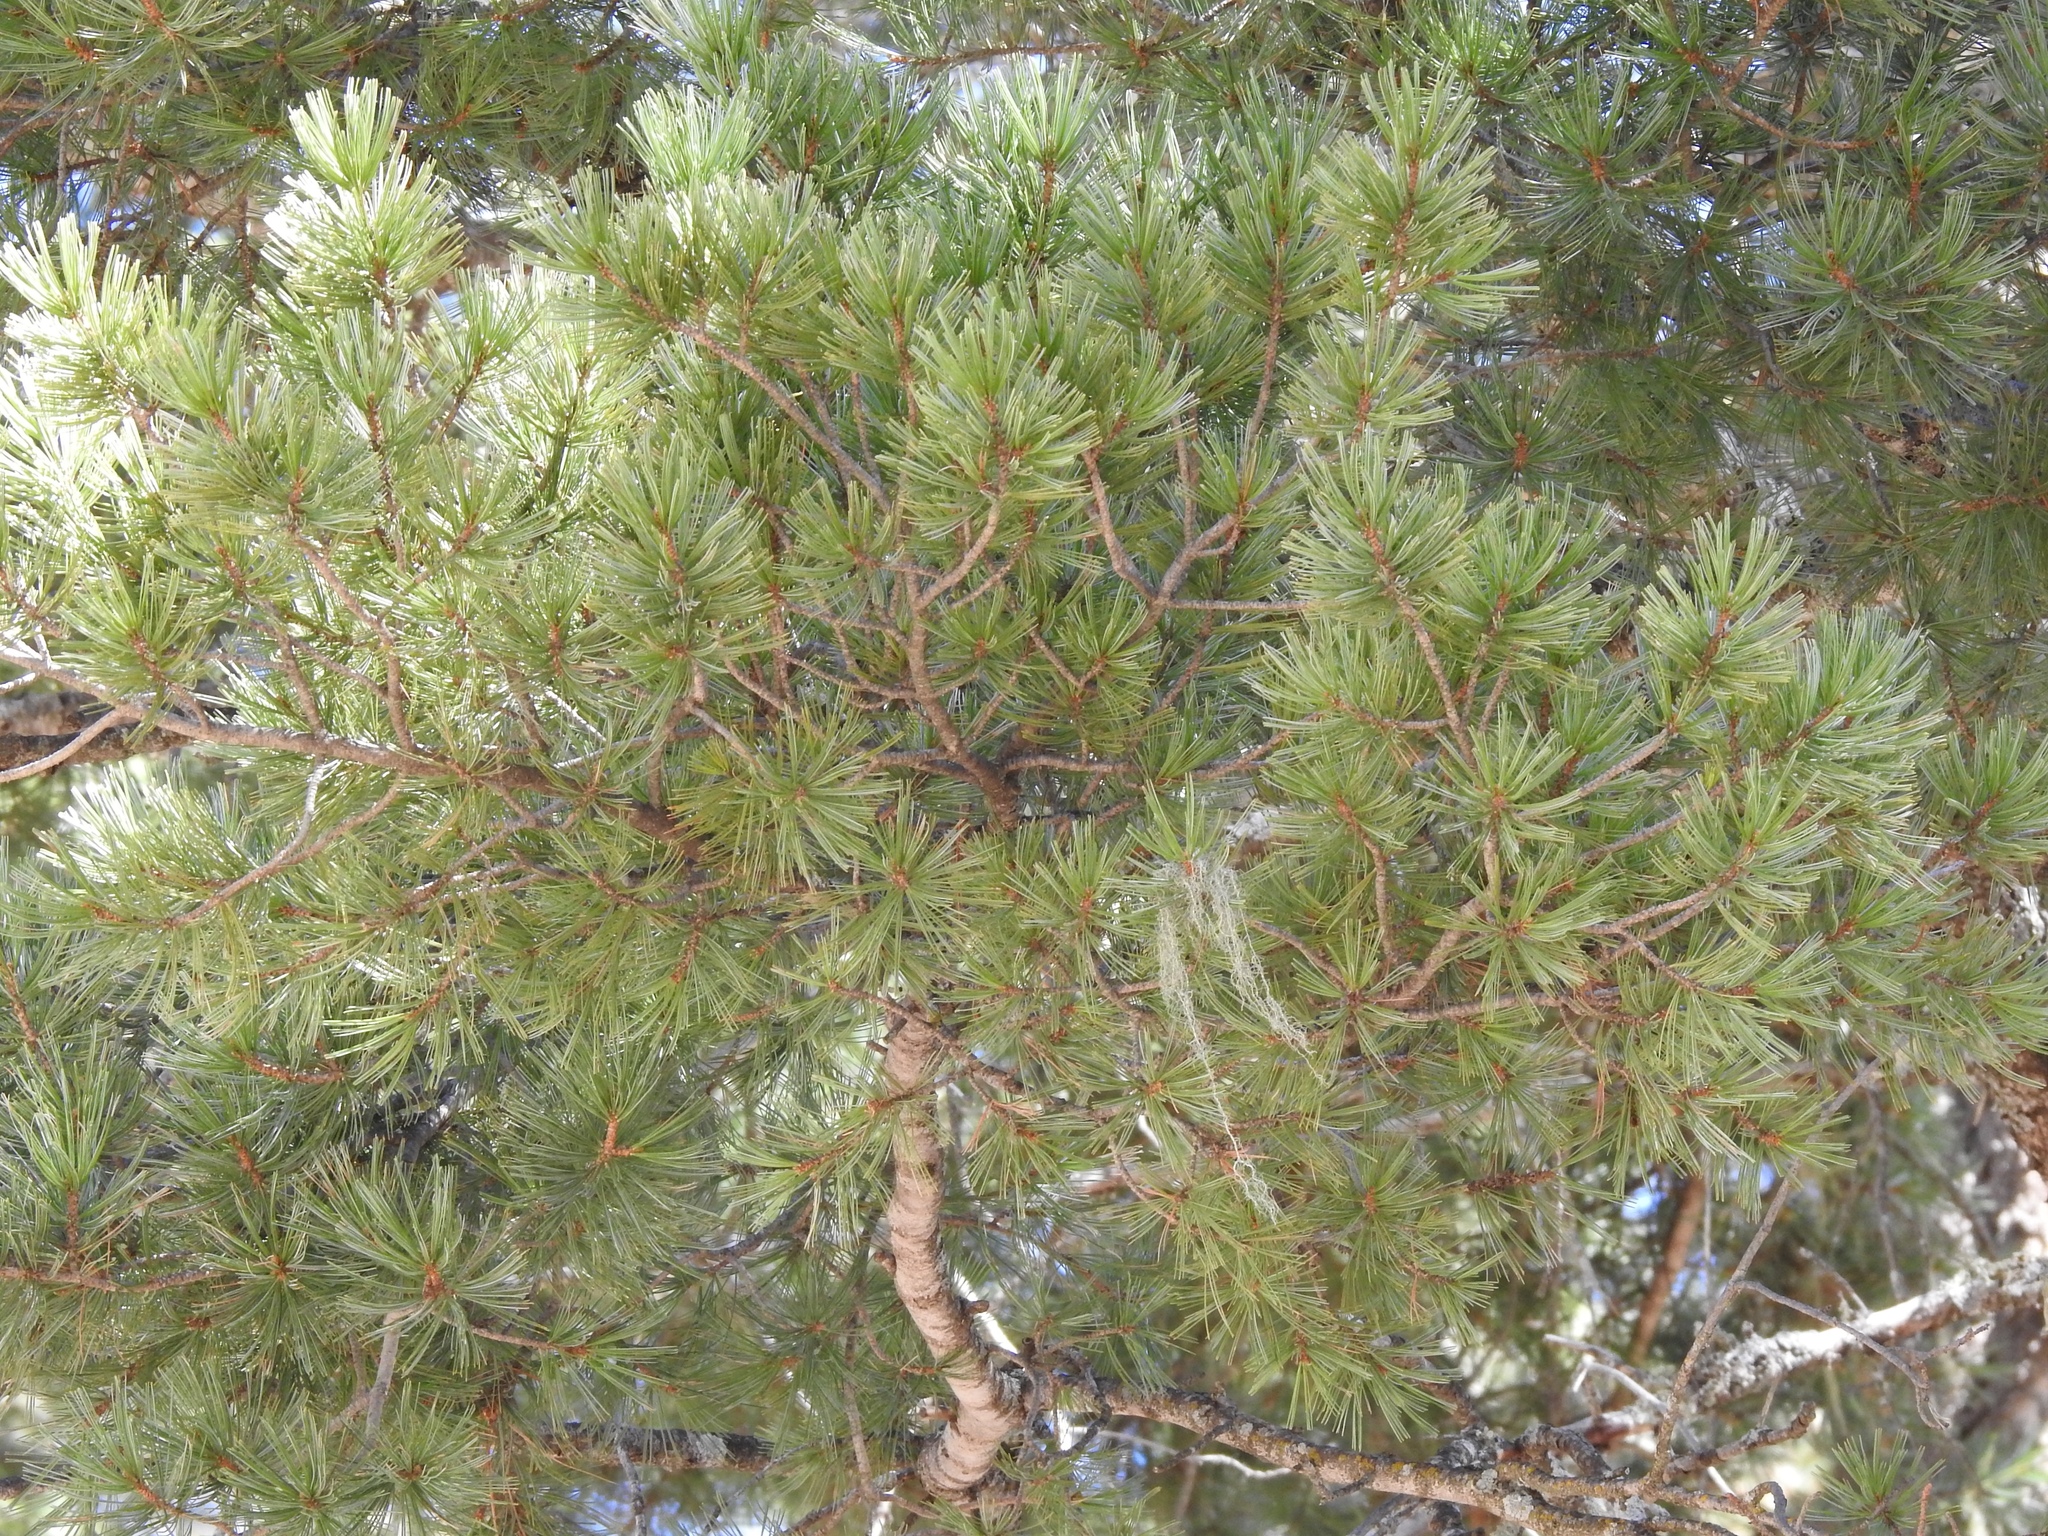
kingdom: Plantae
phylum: Tracheophyta
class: Pinopsida
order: Pinales
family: Pinaceae
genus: Pinus
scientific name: Pinus strobiformis
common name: Southwestern white pine
